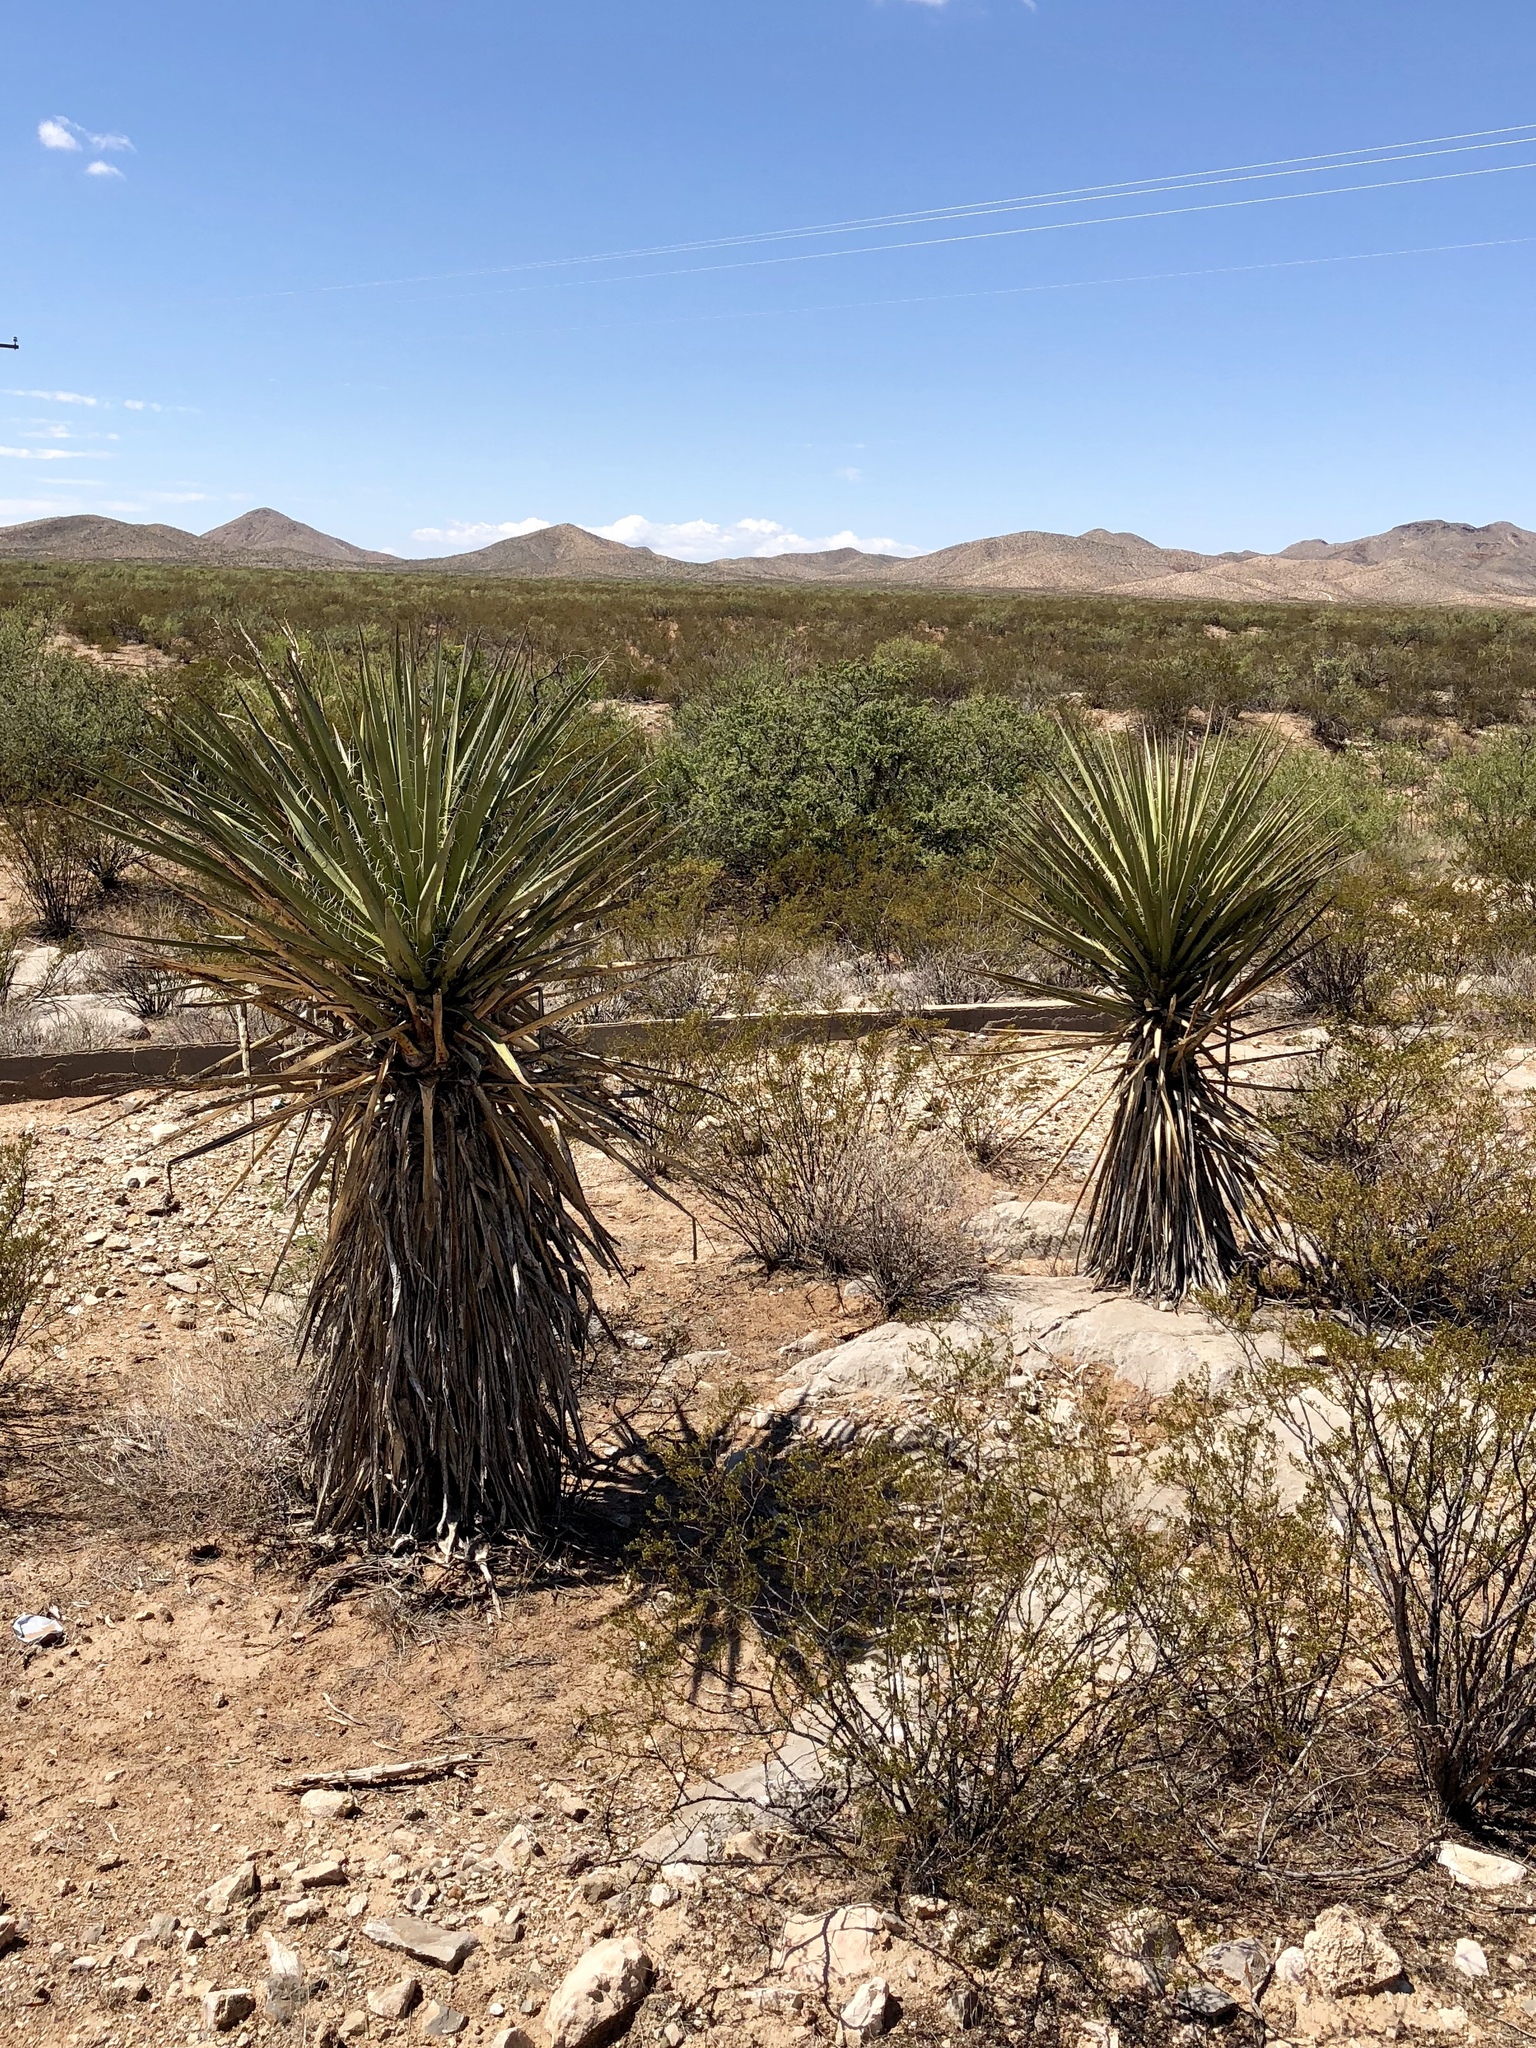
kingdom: Plantae
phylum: Tracheophyta
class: Liliopsida
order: Asparagales
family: Asparagaceae
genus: Yucca
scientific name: Yucca treculiana
